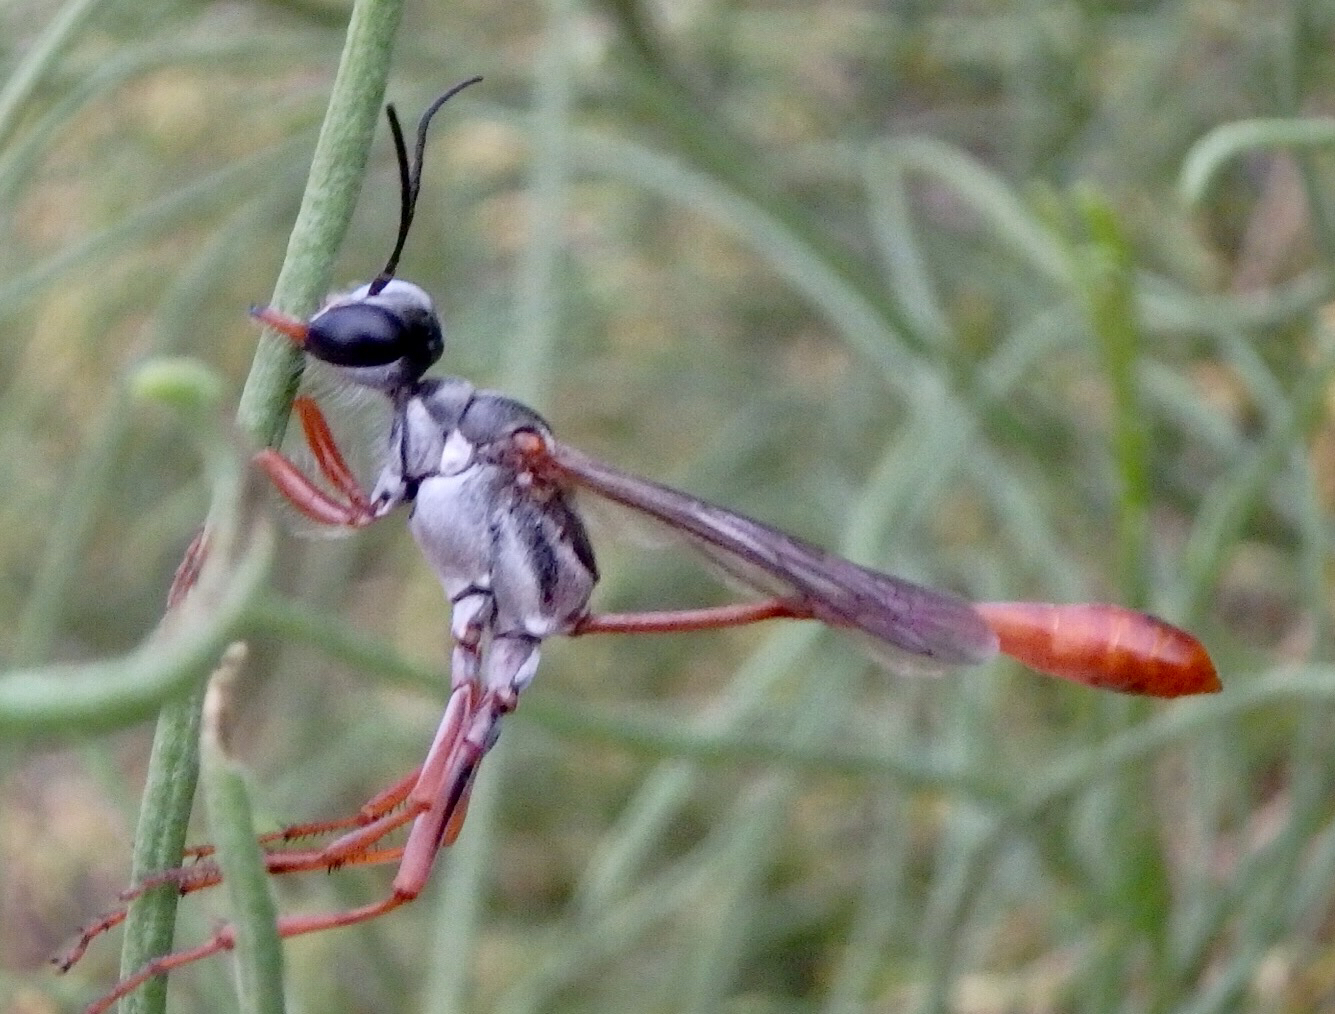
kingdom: Animalia
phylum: Arthropoda
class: Insecta
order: Hymenoptera
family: Sphecidae
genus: Ammophila
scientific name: Ammophila aberti
